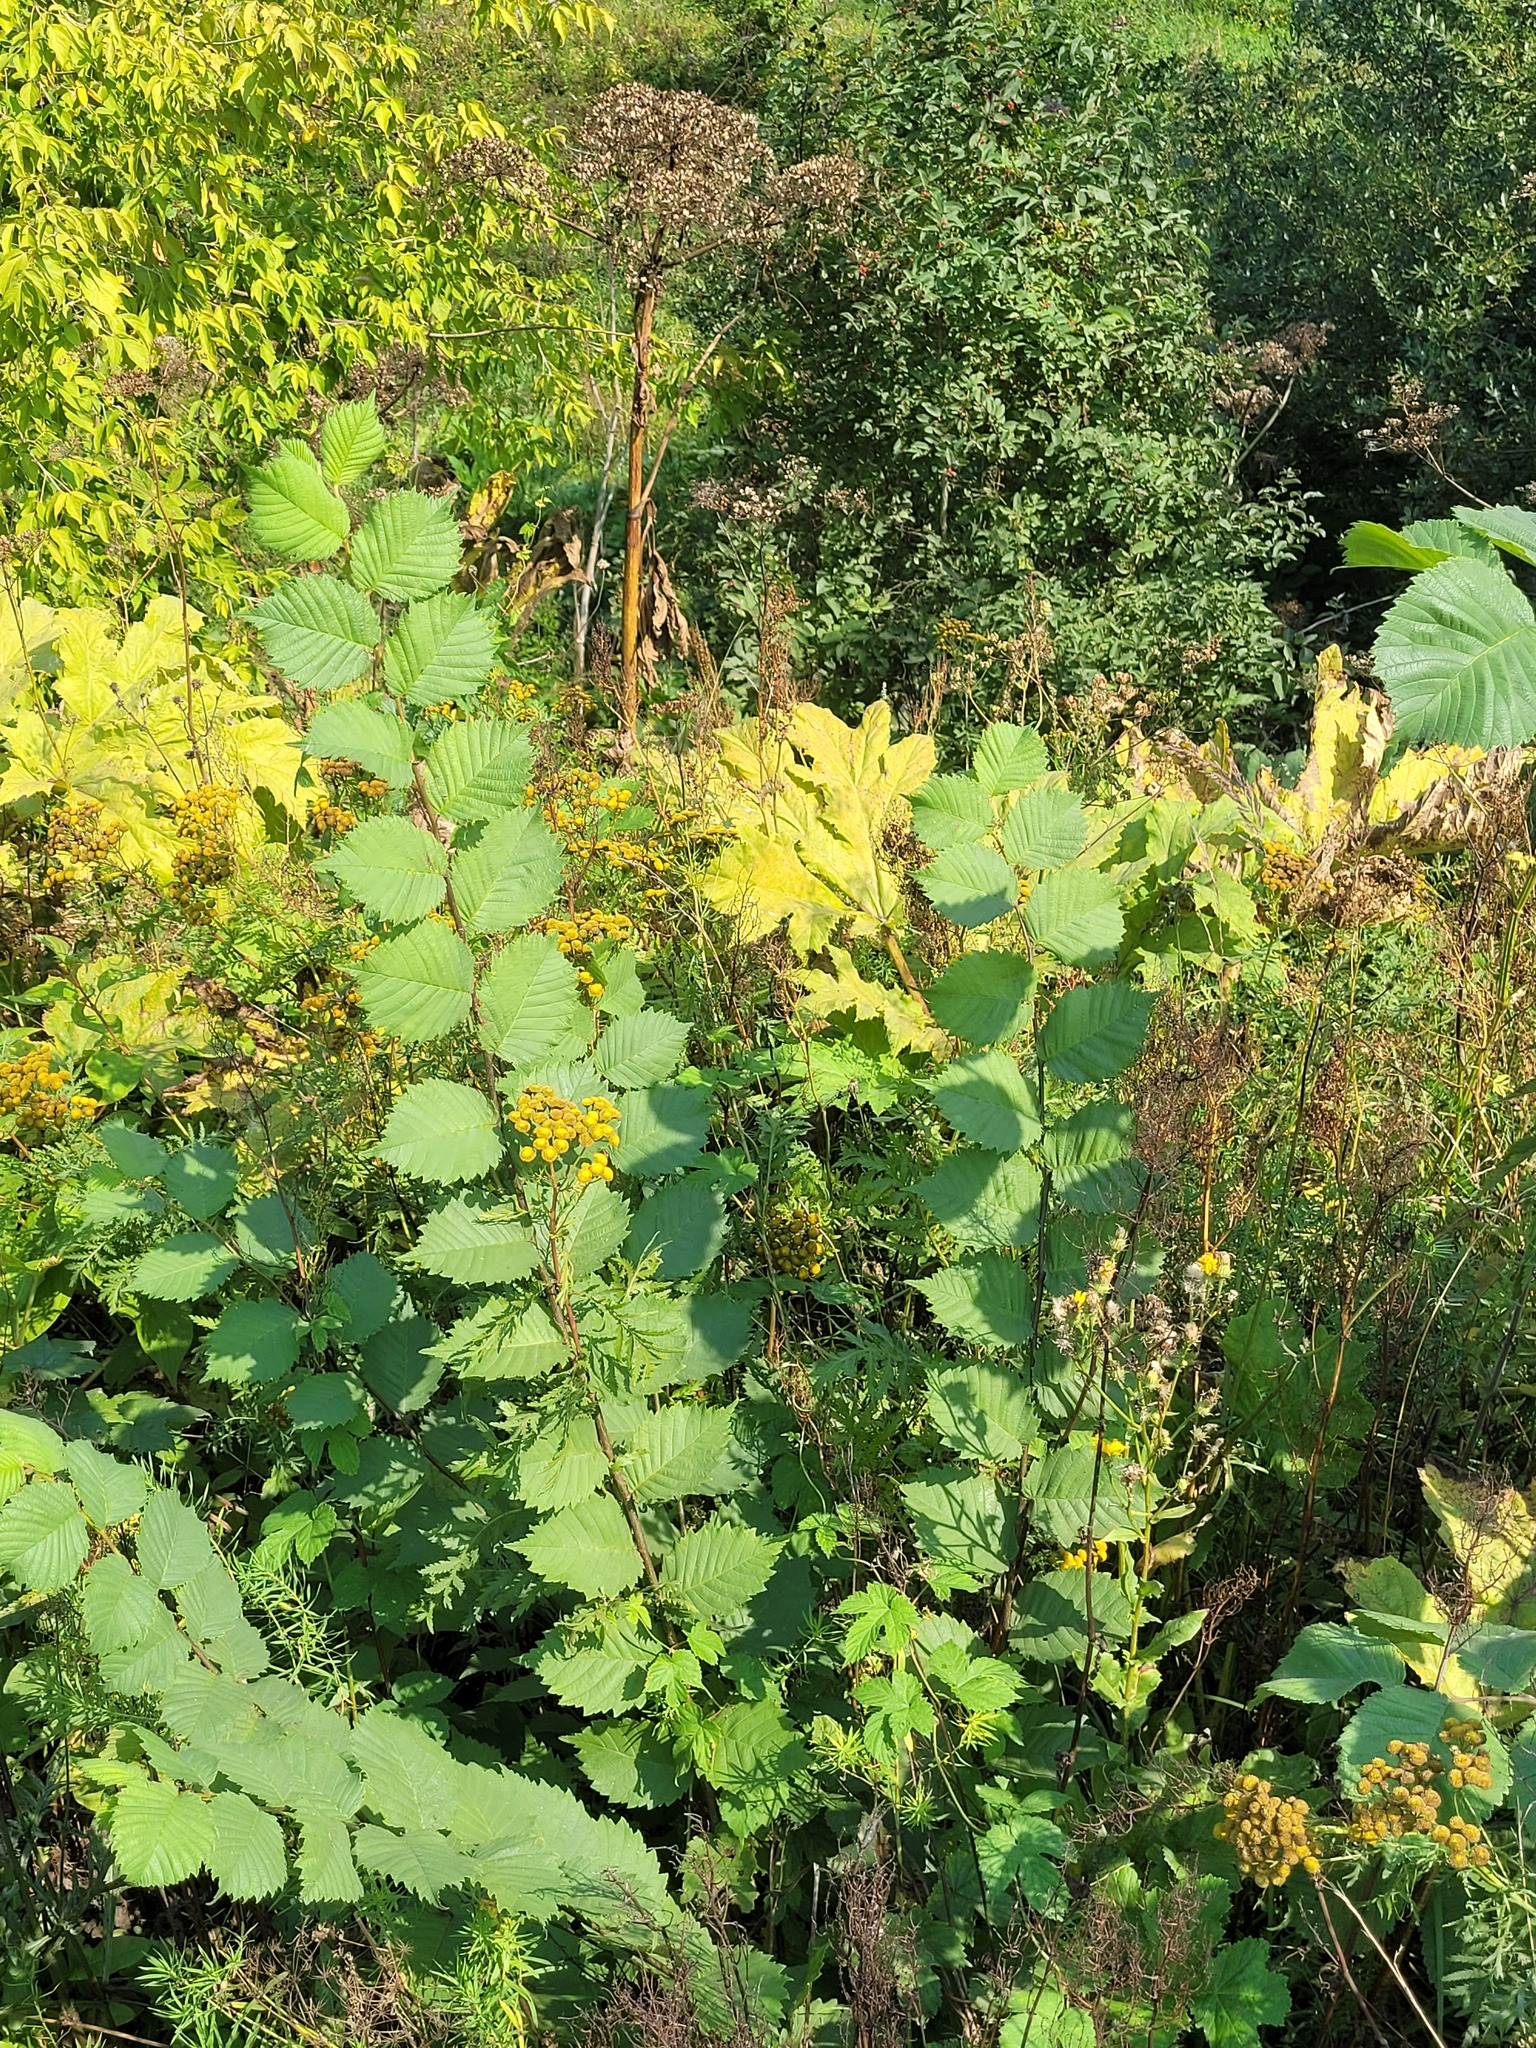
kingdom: Plantae
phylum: Tracheophyta
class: Magnoliopsida
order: Rosales
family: Ulmaceae
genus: Ulmus
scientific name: Ulmus laevis
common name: European white-elm
